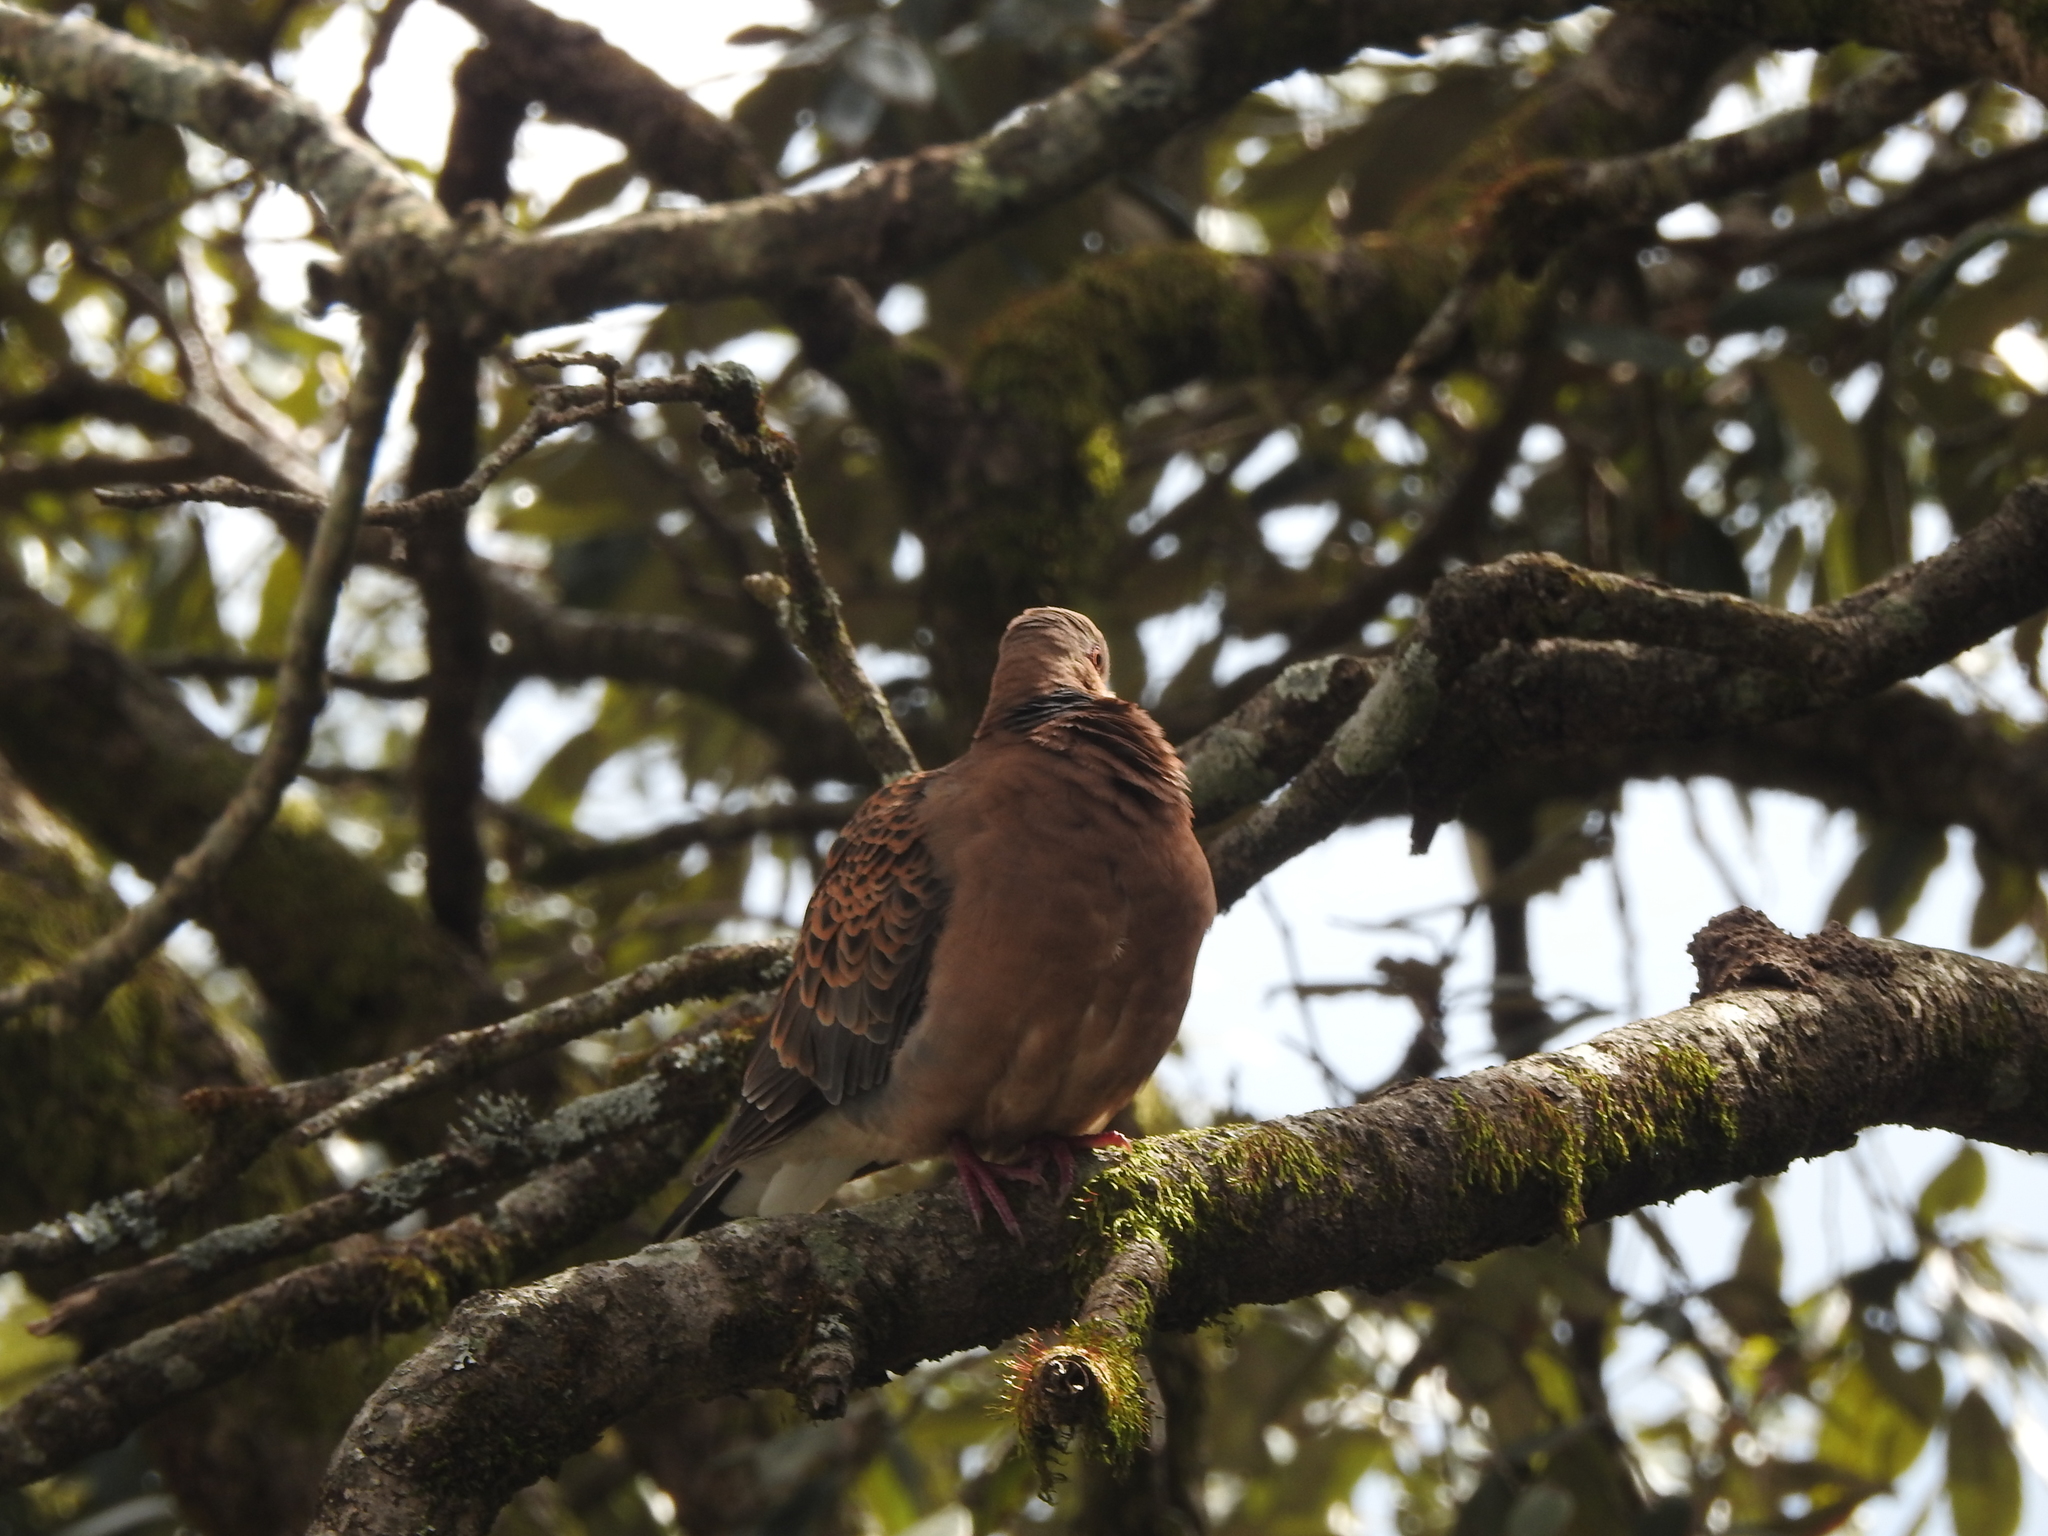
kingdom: Animalia
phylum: Chordata
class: Aves
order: Columbiformes
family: Columbidae
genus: Streptopelia
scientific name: Streptopelia orientalis
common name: Oriental turtle dove
